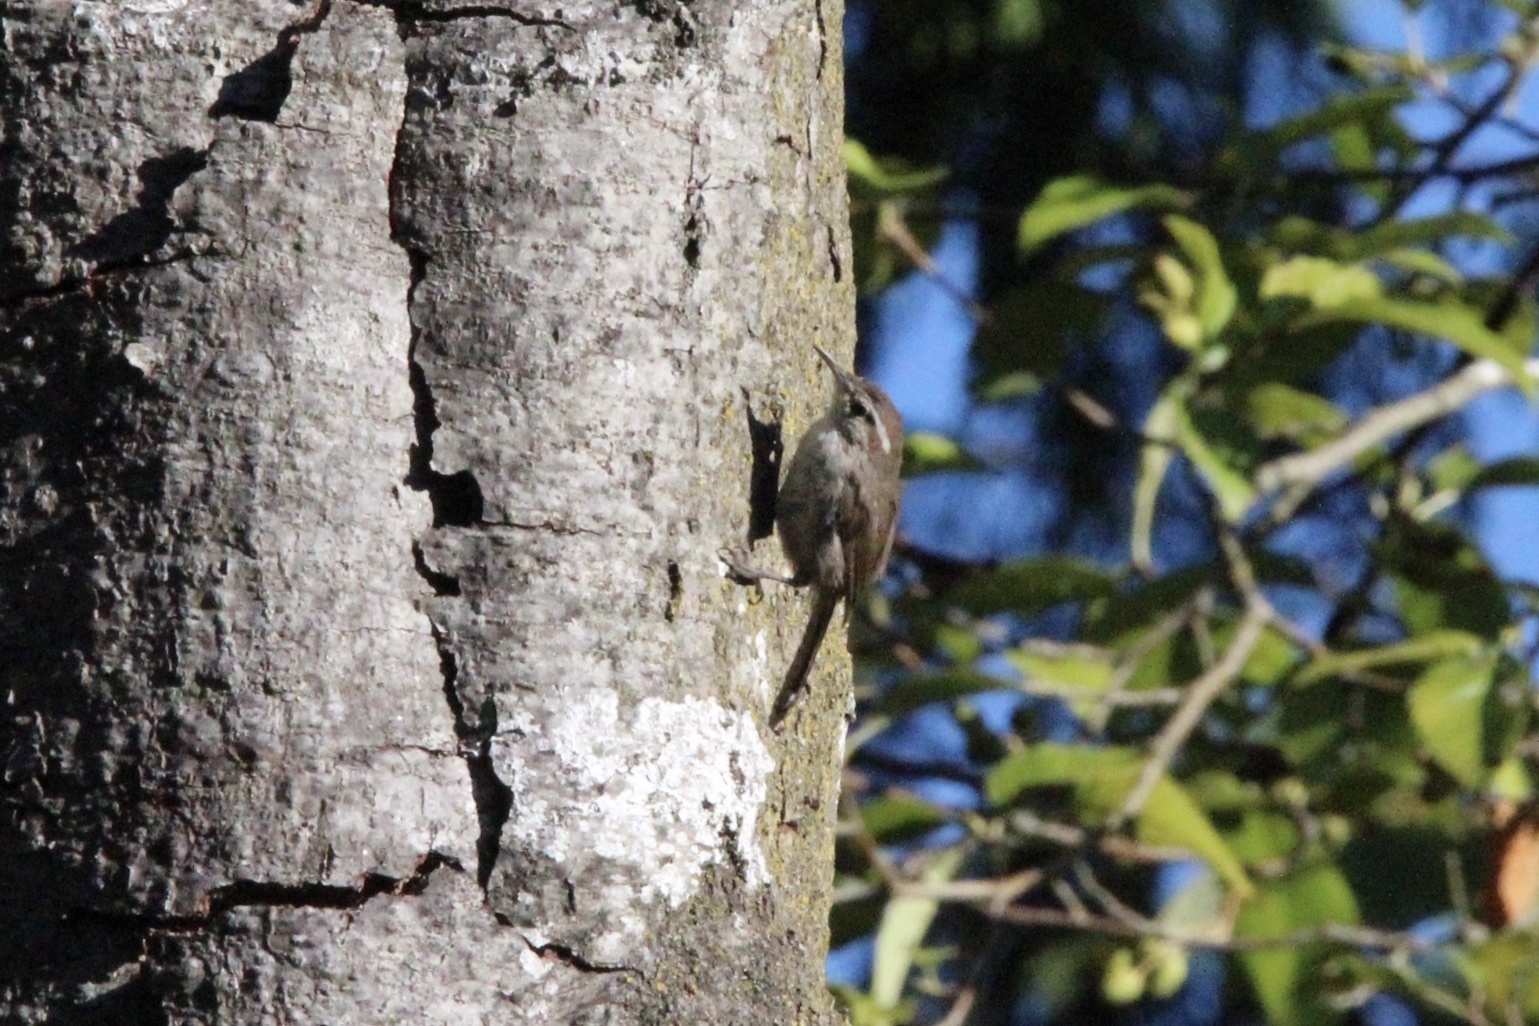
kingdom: Animalia
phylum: Chordata
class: Aves
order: Passeriformes
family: Troglodytidae
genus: Thryomanes
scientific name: Thryomanes bewickii
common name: Bewick's wren
